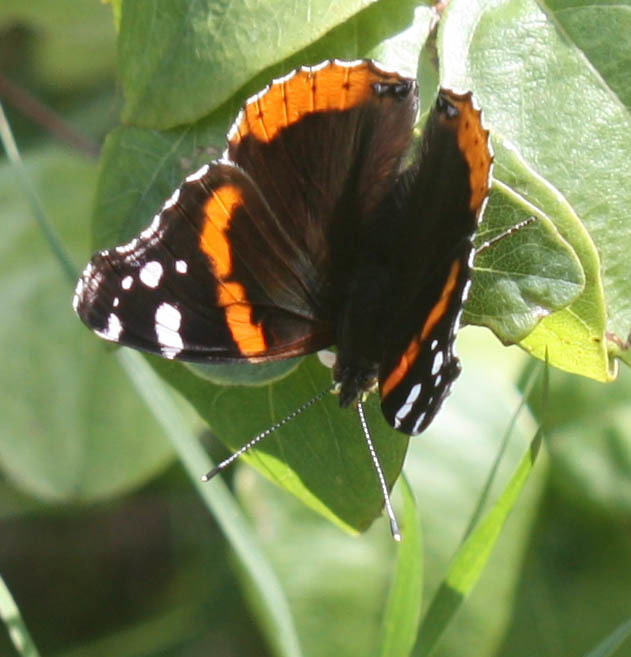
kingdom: Animalia
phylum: Arthropoda
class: Insecta
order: Lepidoptera
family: Nymphalidae
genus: Vanessa
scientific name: Vanessa atalanta
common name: Red admiral
